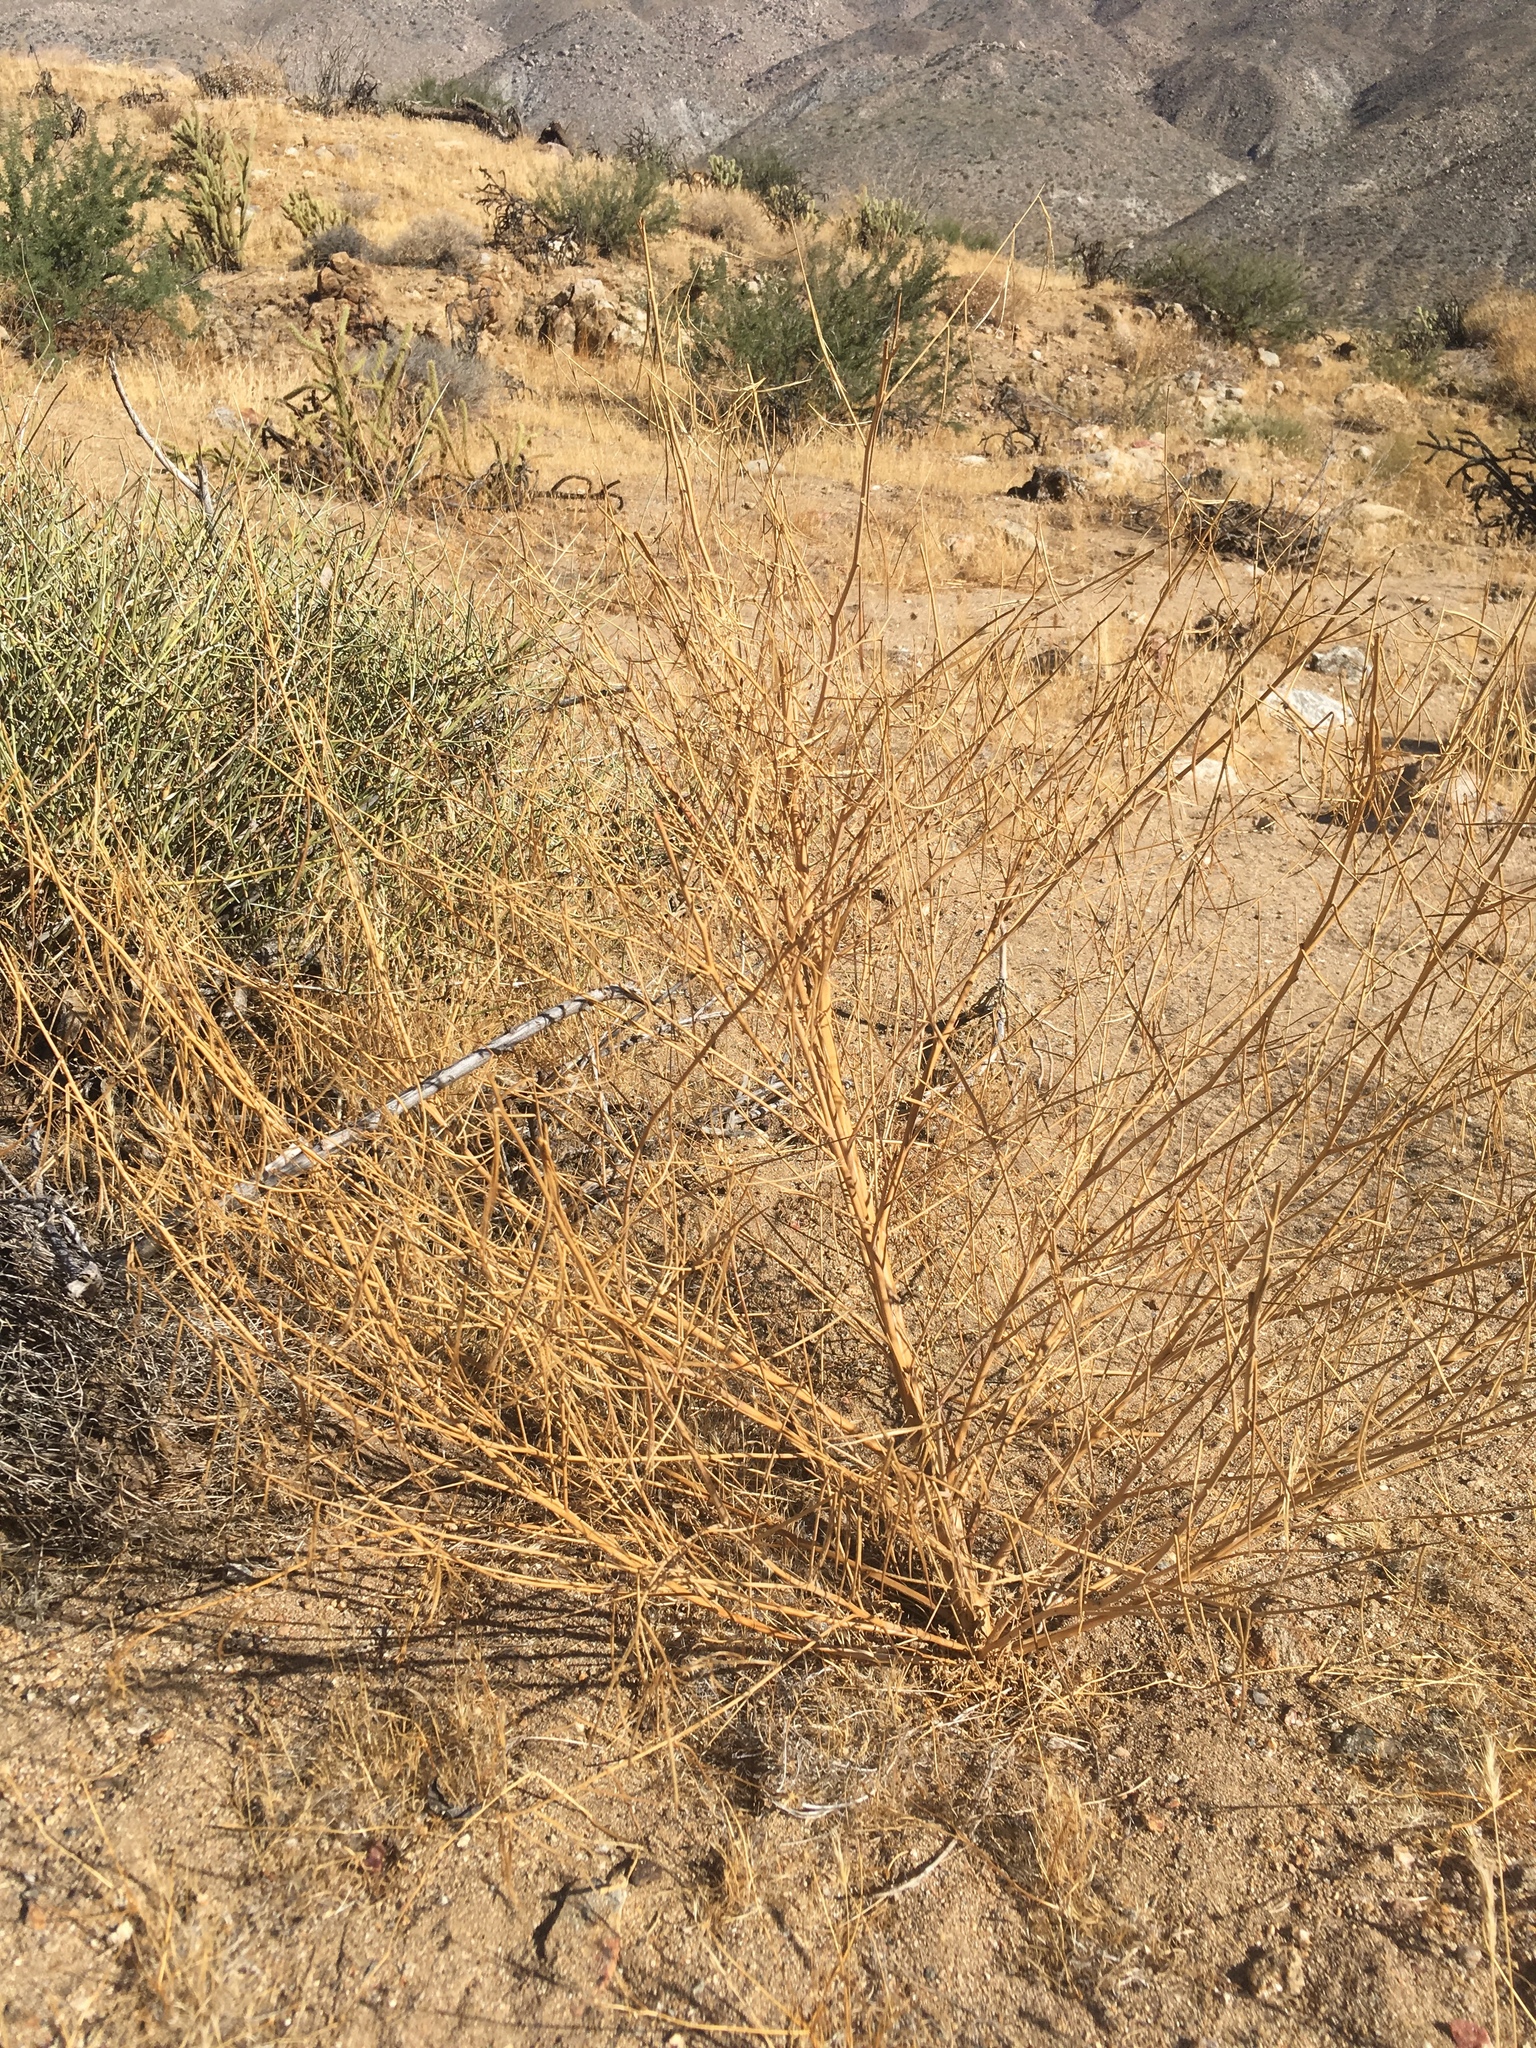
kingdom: Plantae
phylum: Tracheophyta
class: Magnoliopsida
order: Myrtales
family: Onagraceae
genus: Eulobus
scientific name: Eulobus californicus
